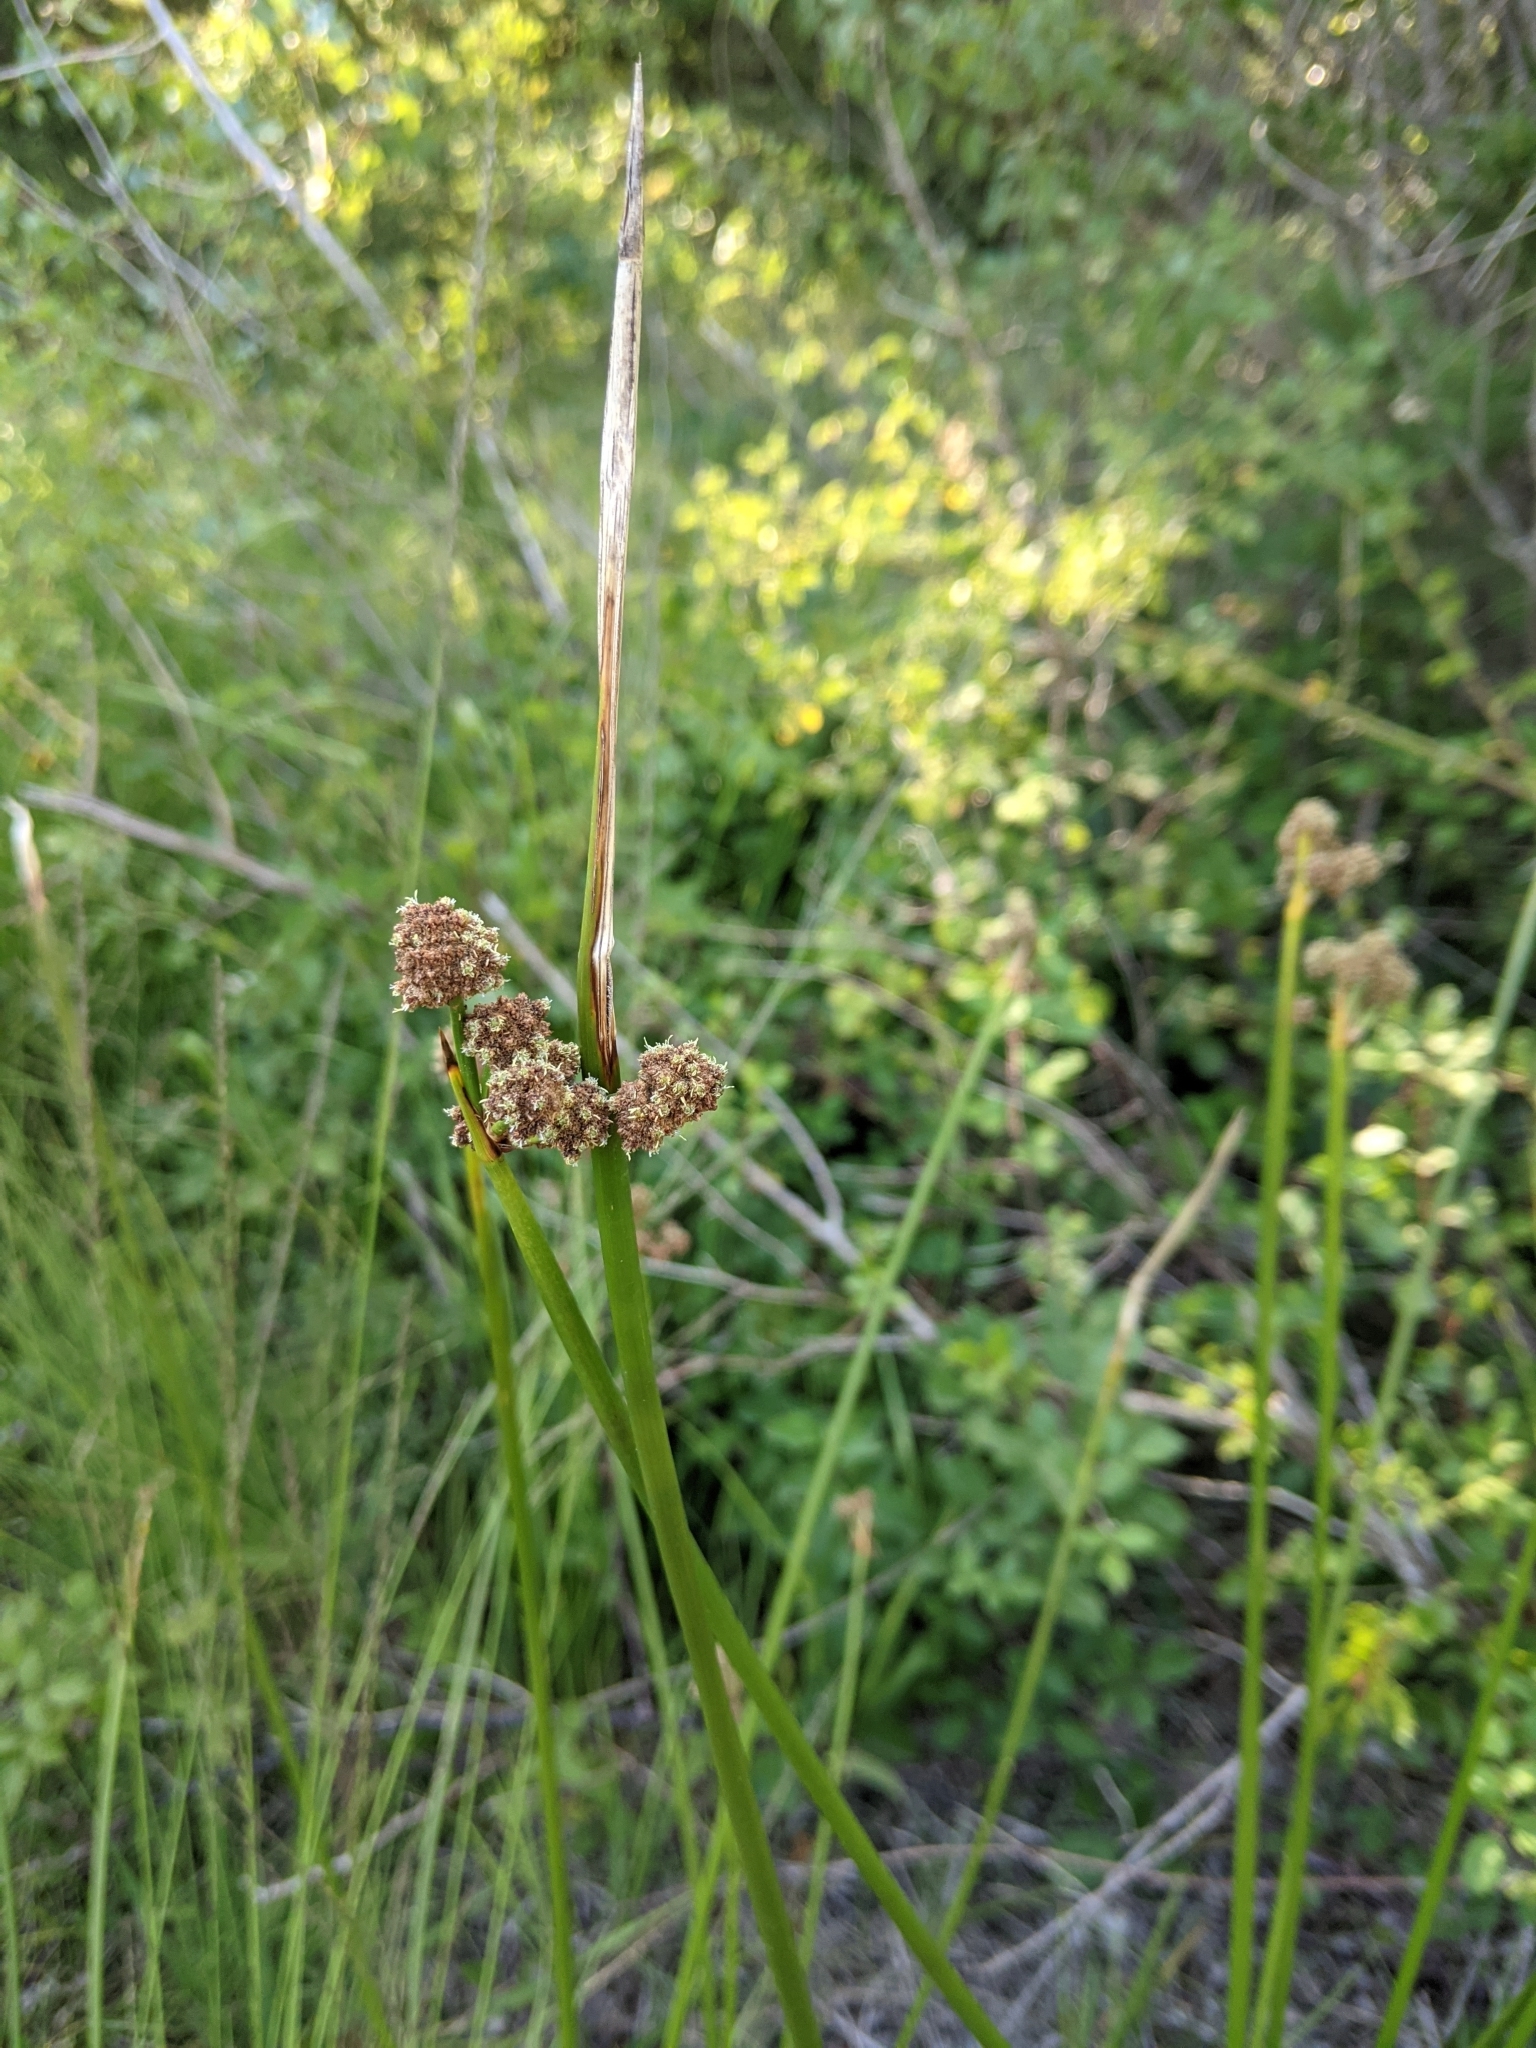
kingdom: Plantae
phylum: Tracheophyta
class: Liliopsida
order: Poales
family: Cyperaceae
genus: Scirpoides
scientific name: Scirpoides holoschoenus
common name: Round-headed club-rush
